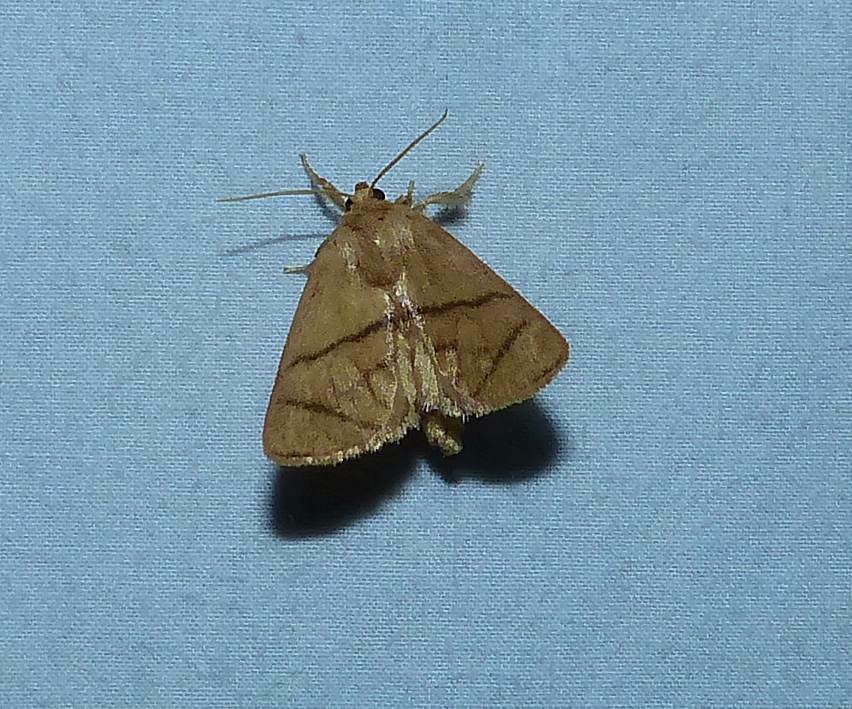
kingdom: Animalia
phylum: Arthropoda
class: Insecta
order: Lepidoptera
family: Limacodidae
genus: Apoda
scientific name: Apoda y-inversa
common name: Yellow-collared slug moth
